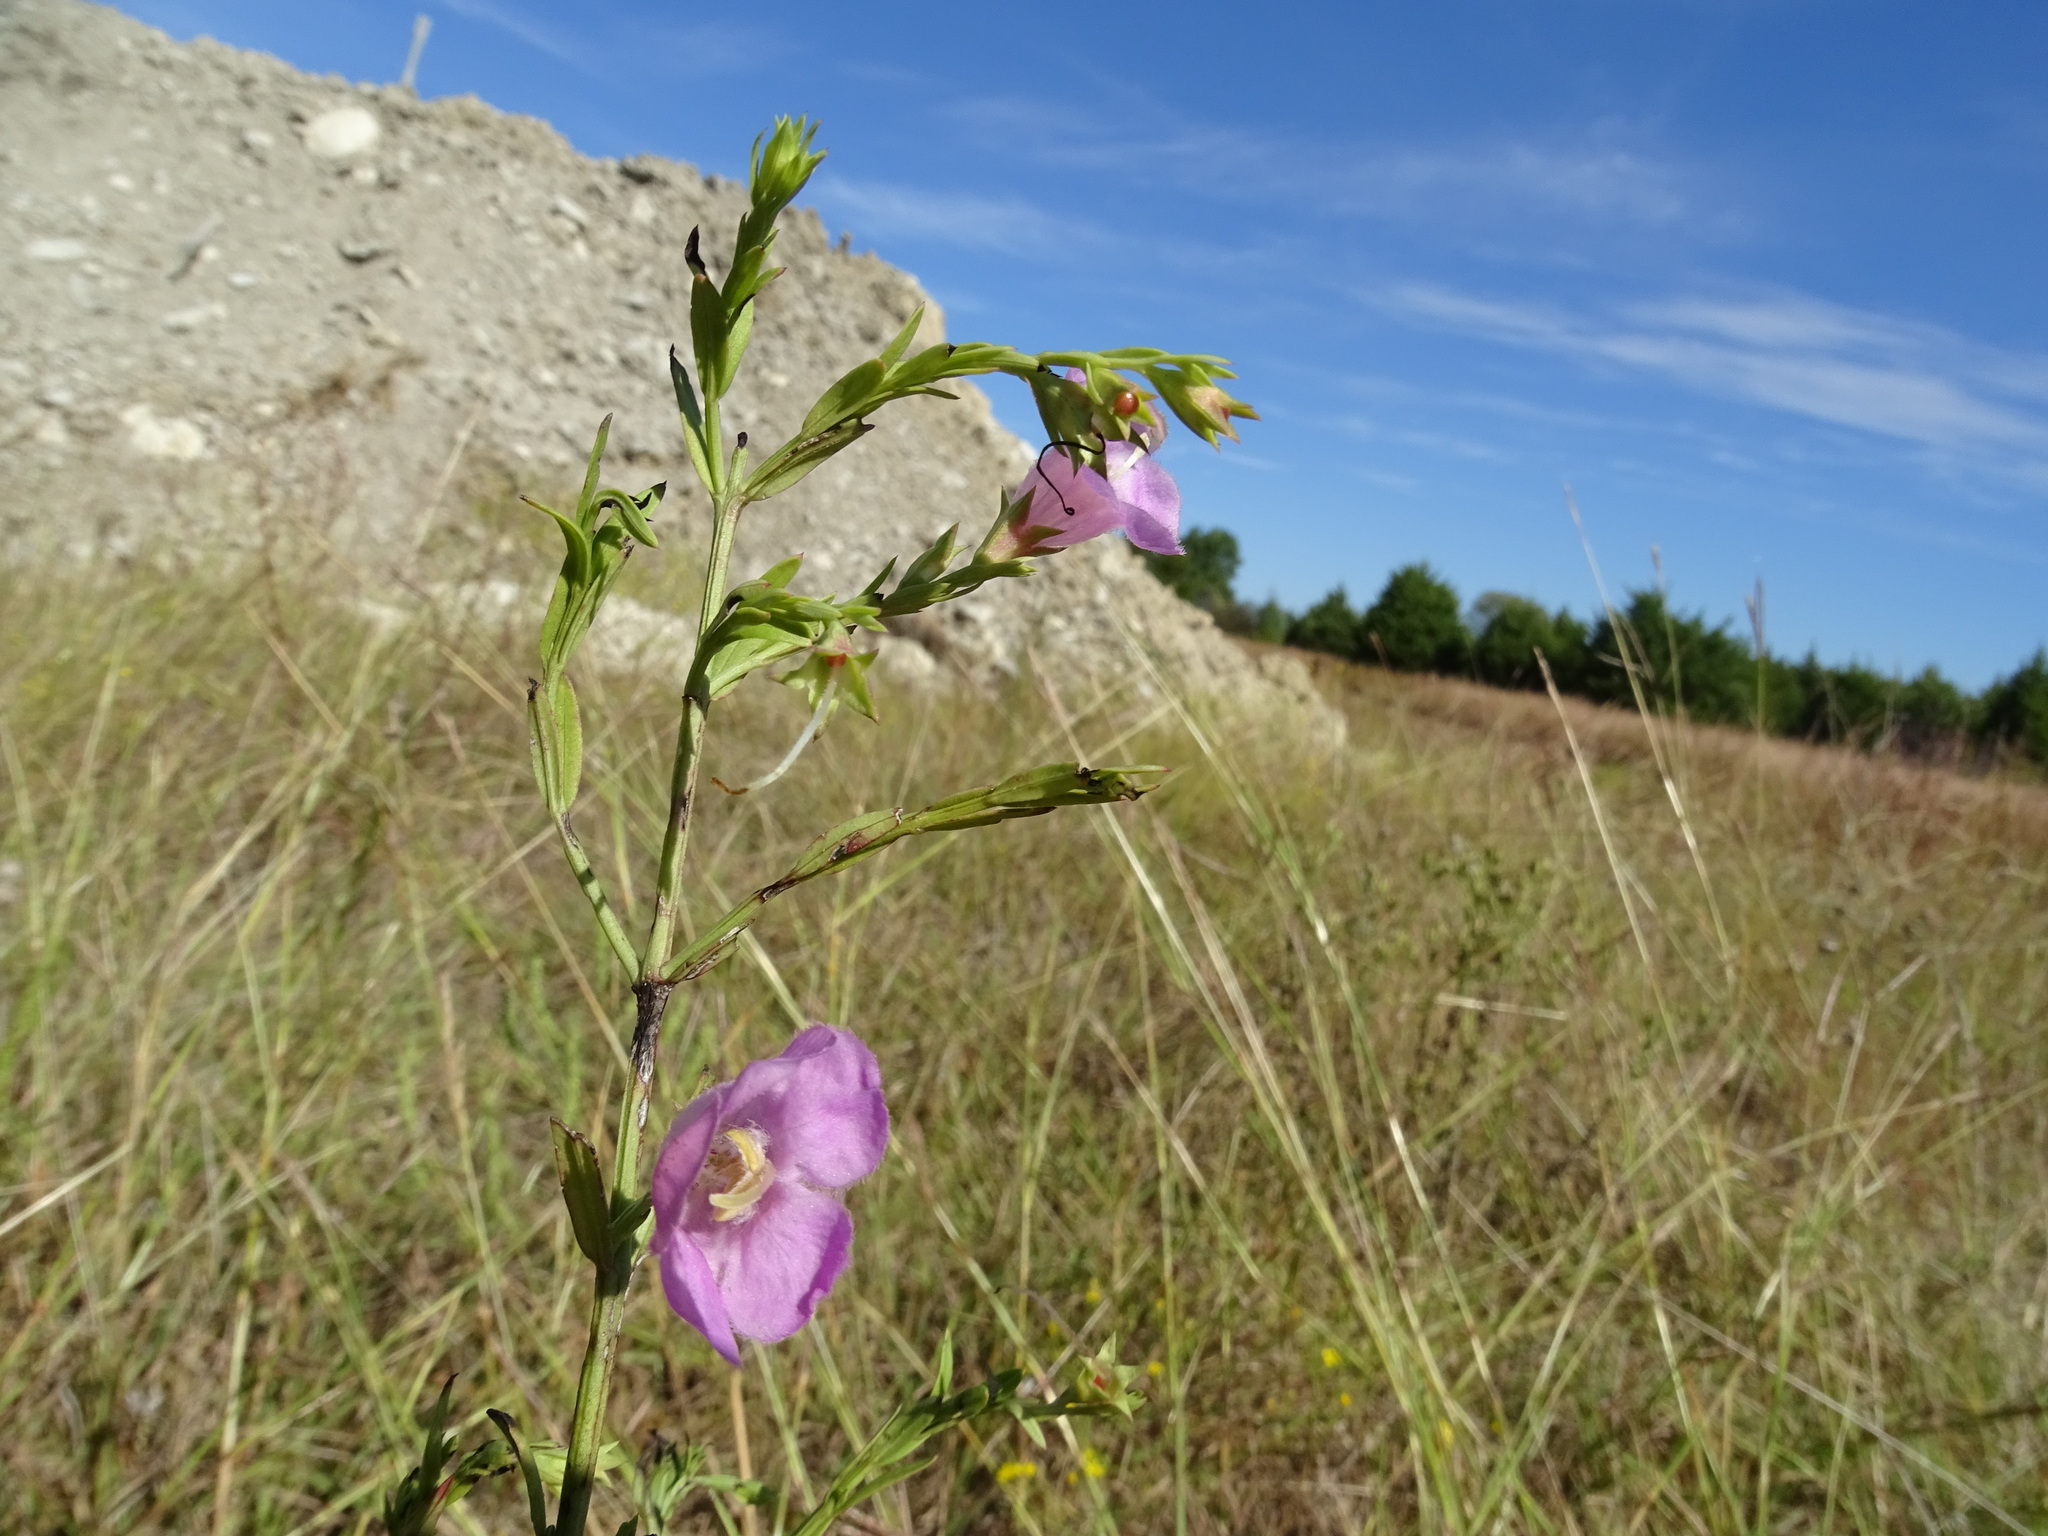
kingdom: Plantae
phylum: Tracheophyta
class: Magnoliopsida
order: Lamiales
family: Orobanchaceae
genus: Agalinis
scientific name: Agalinis heterophylla
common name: Prairie agalinis
